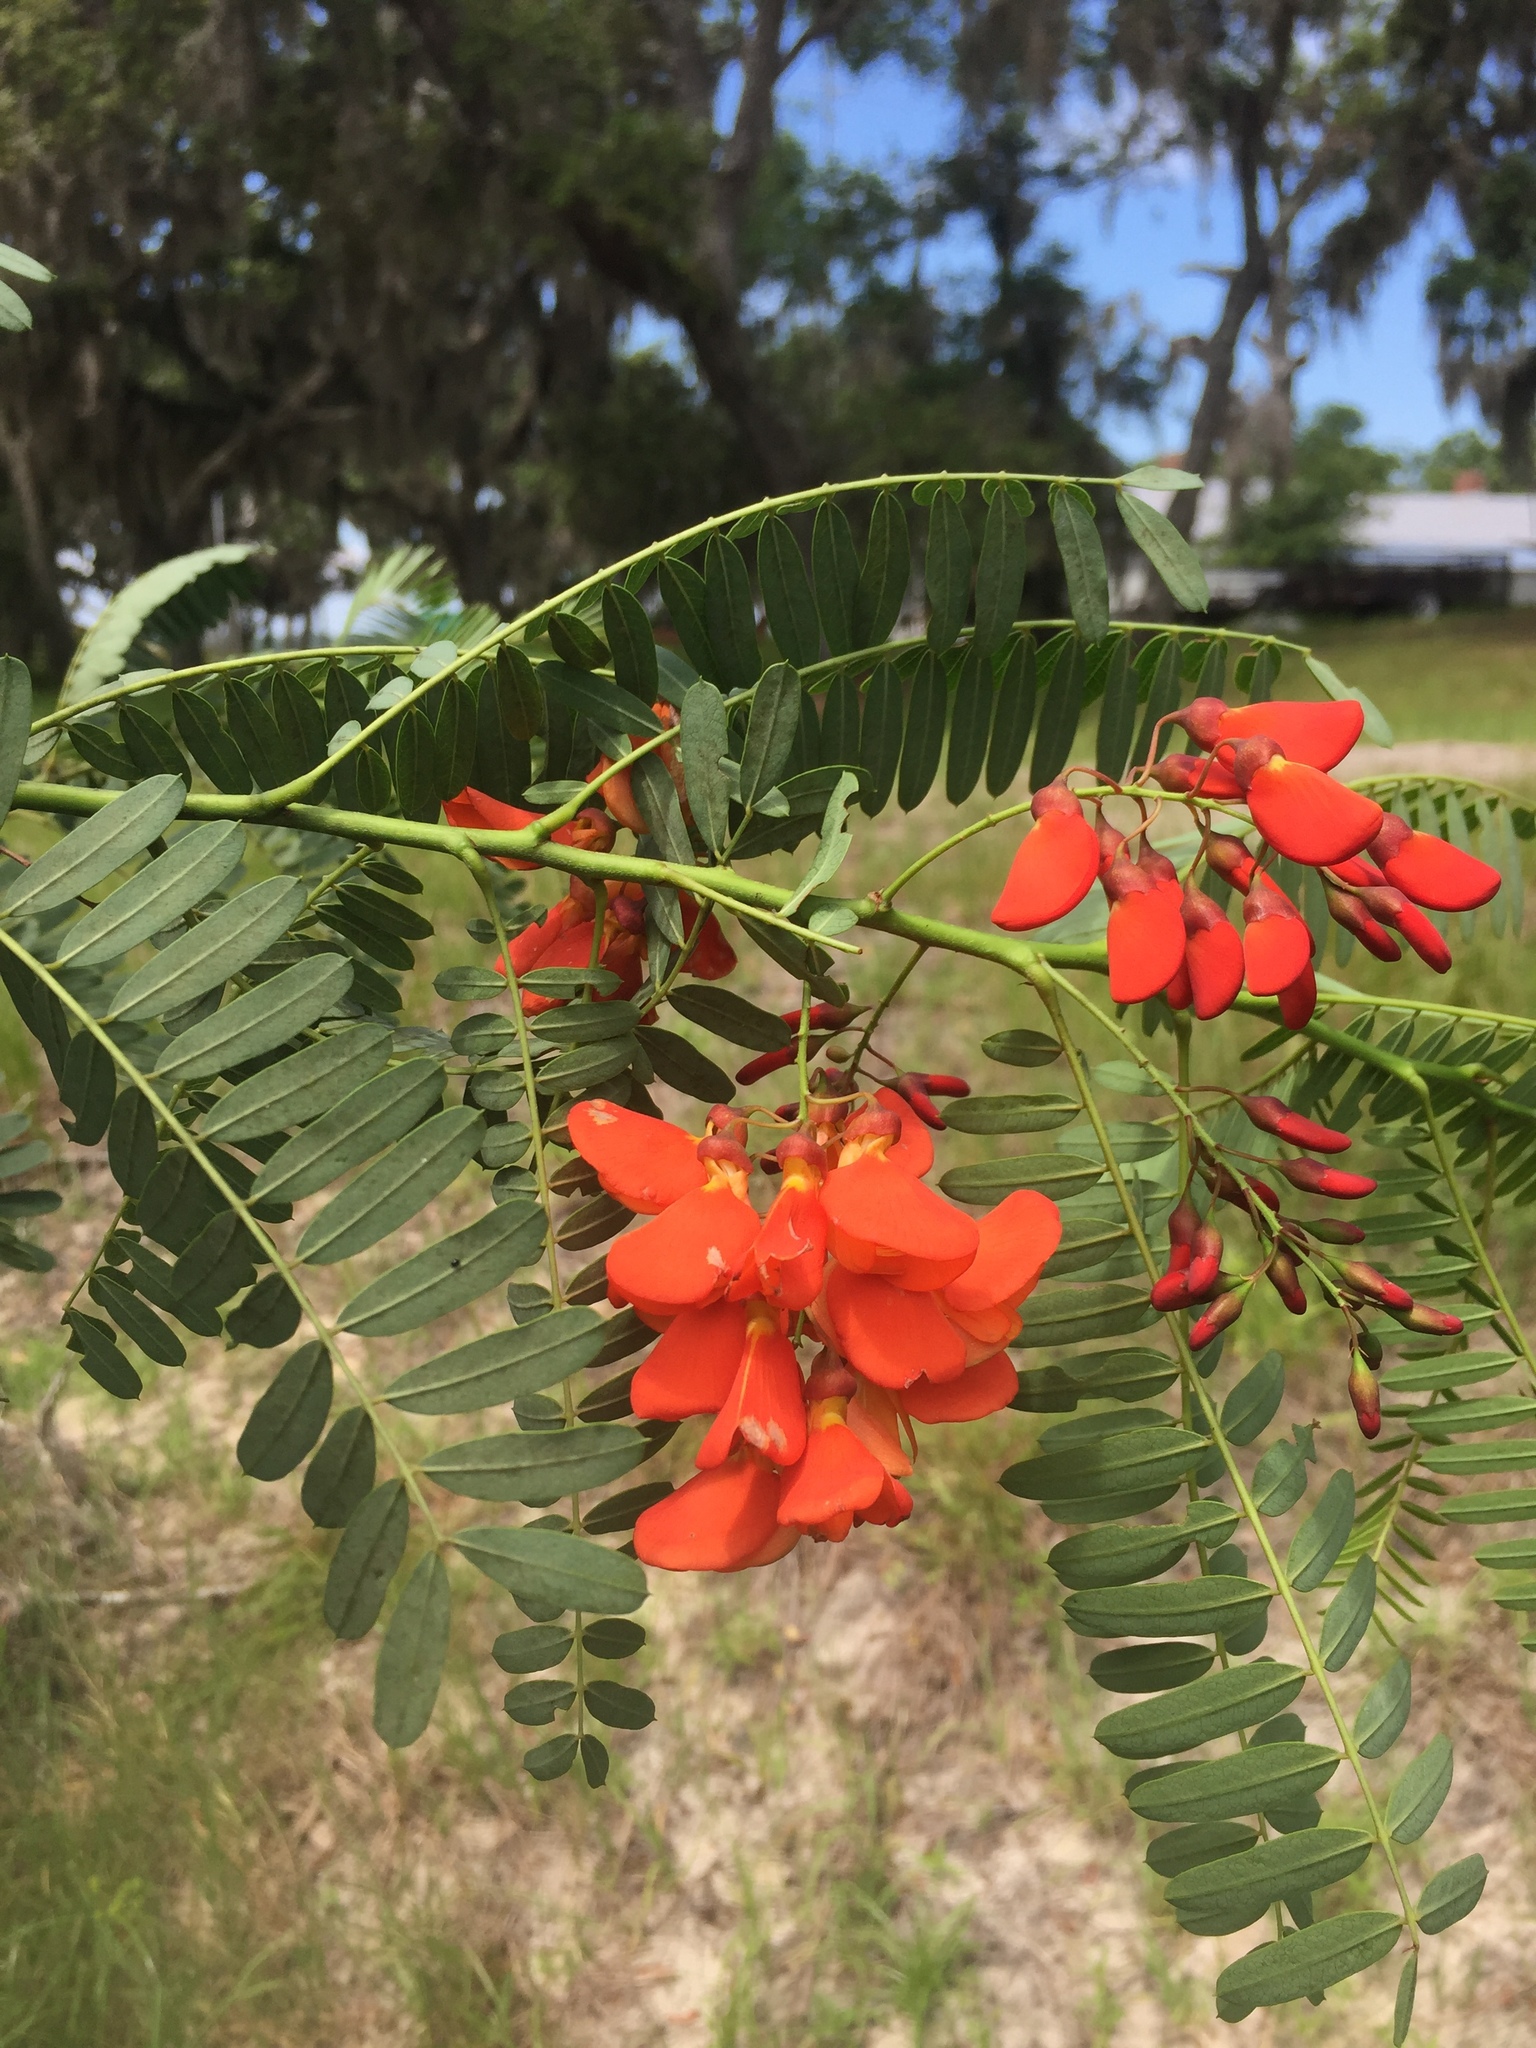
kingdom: Plantae
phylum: Tracheophyta
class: Magnoliopsida
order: Fabales
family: Fabaceae
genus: Sesbania
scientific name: Sesbania punicea
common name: Rattlebox
